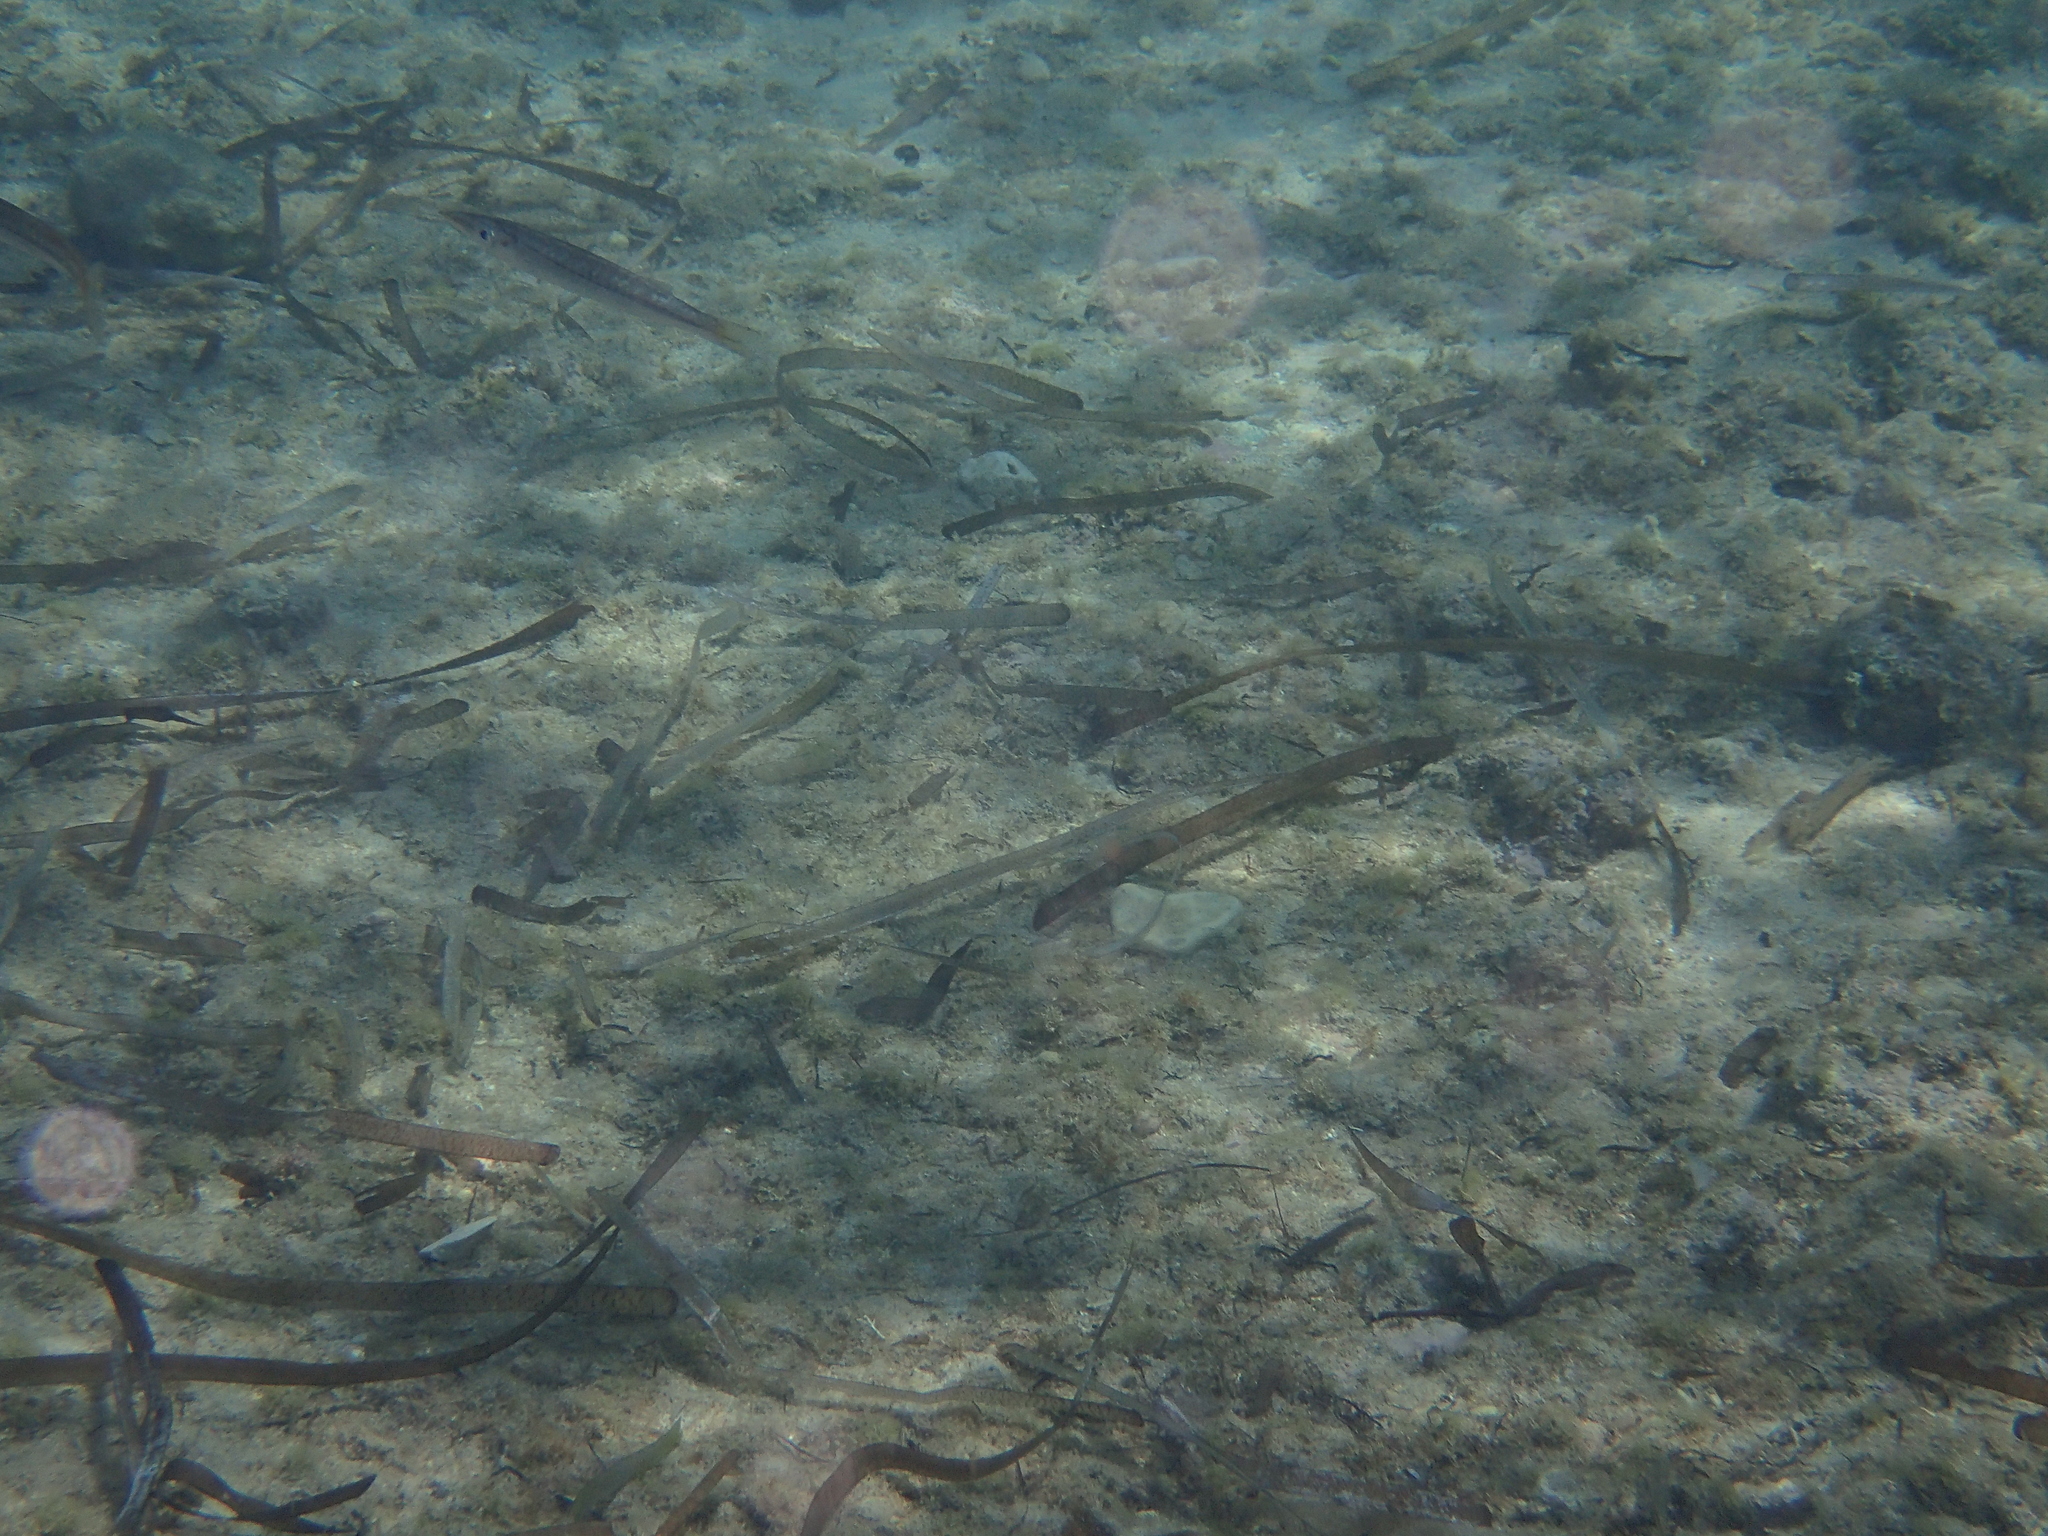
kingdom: Animalia
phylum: Chordata
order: Perciformes
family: Sphyraenidae
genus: Sphyraena
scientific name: Sphyraena
